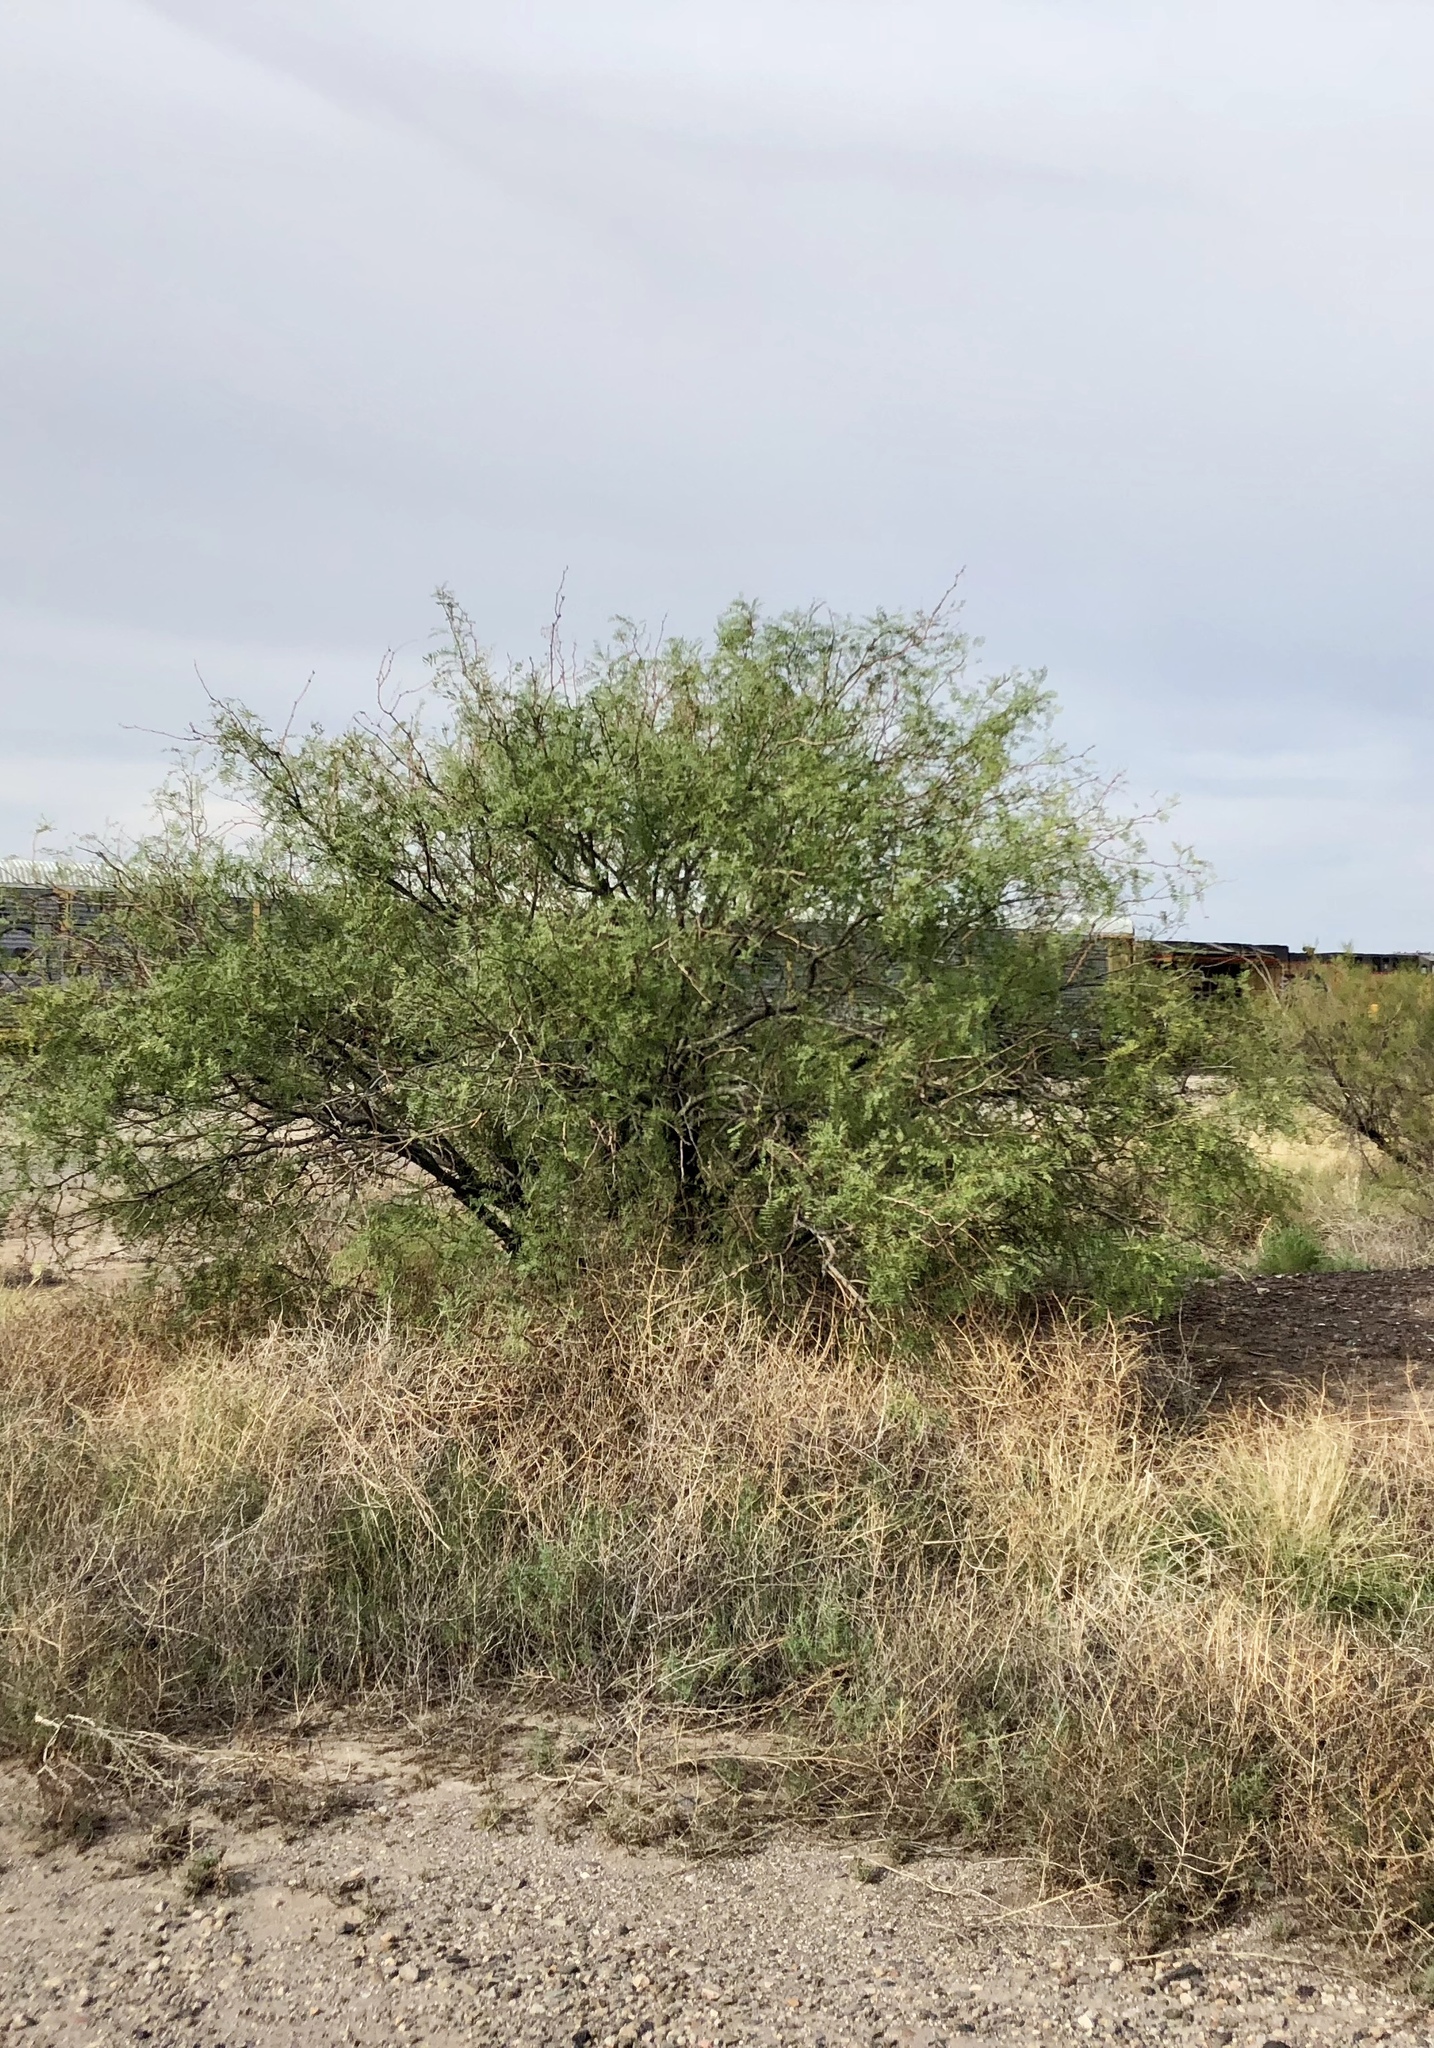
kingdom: Plantae
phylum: Tracheophyta
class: Magnoliopsida
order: Fabales
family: Fabaceae
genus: Prosopis
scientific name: Prosopis glandulosa
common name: Honey mesquite
